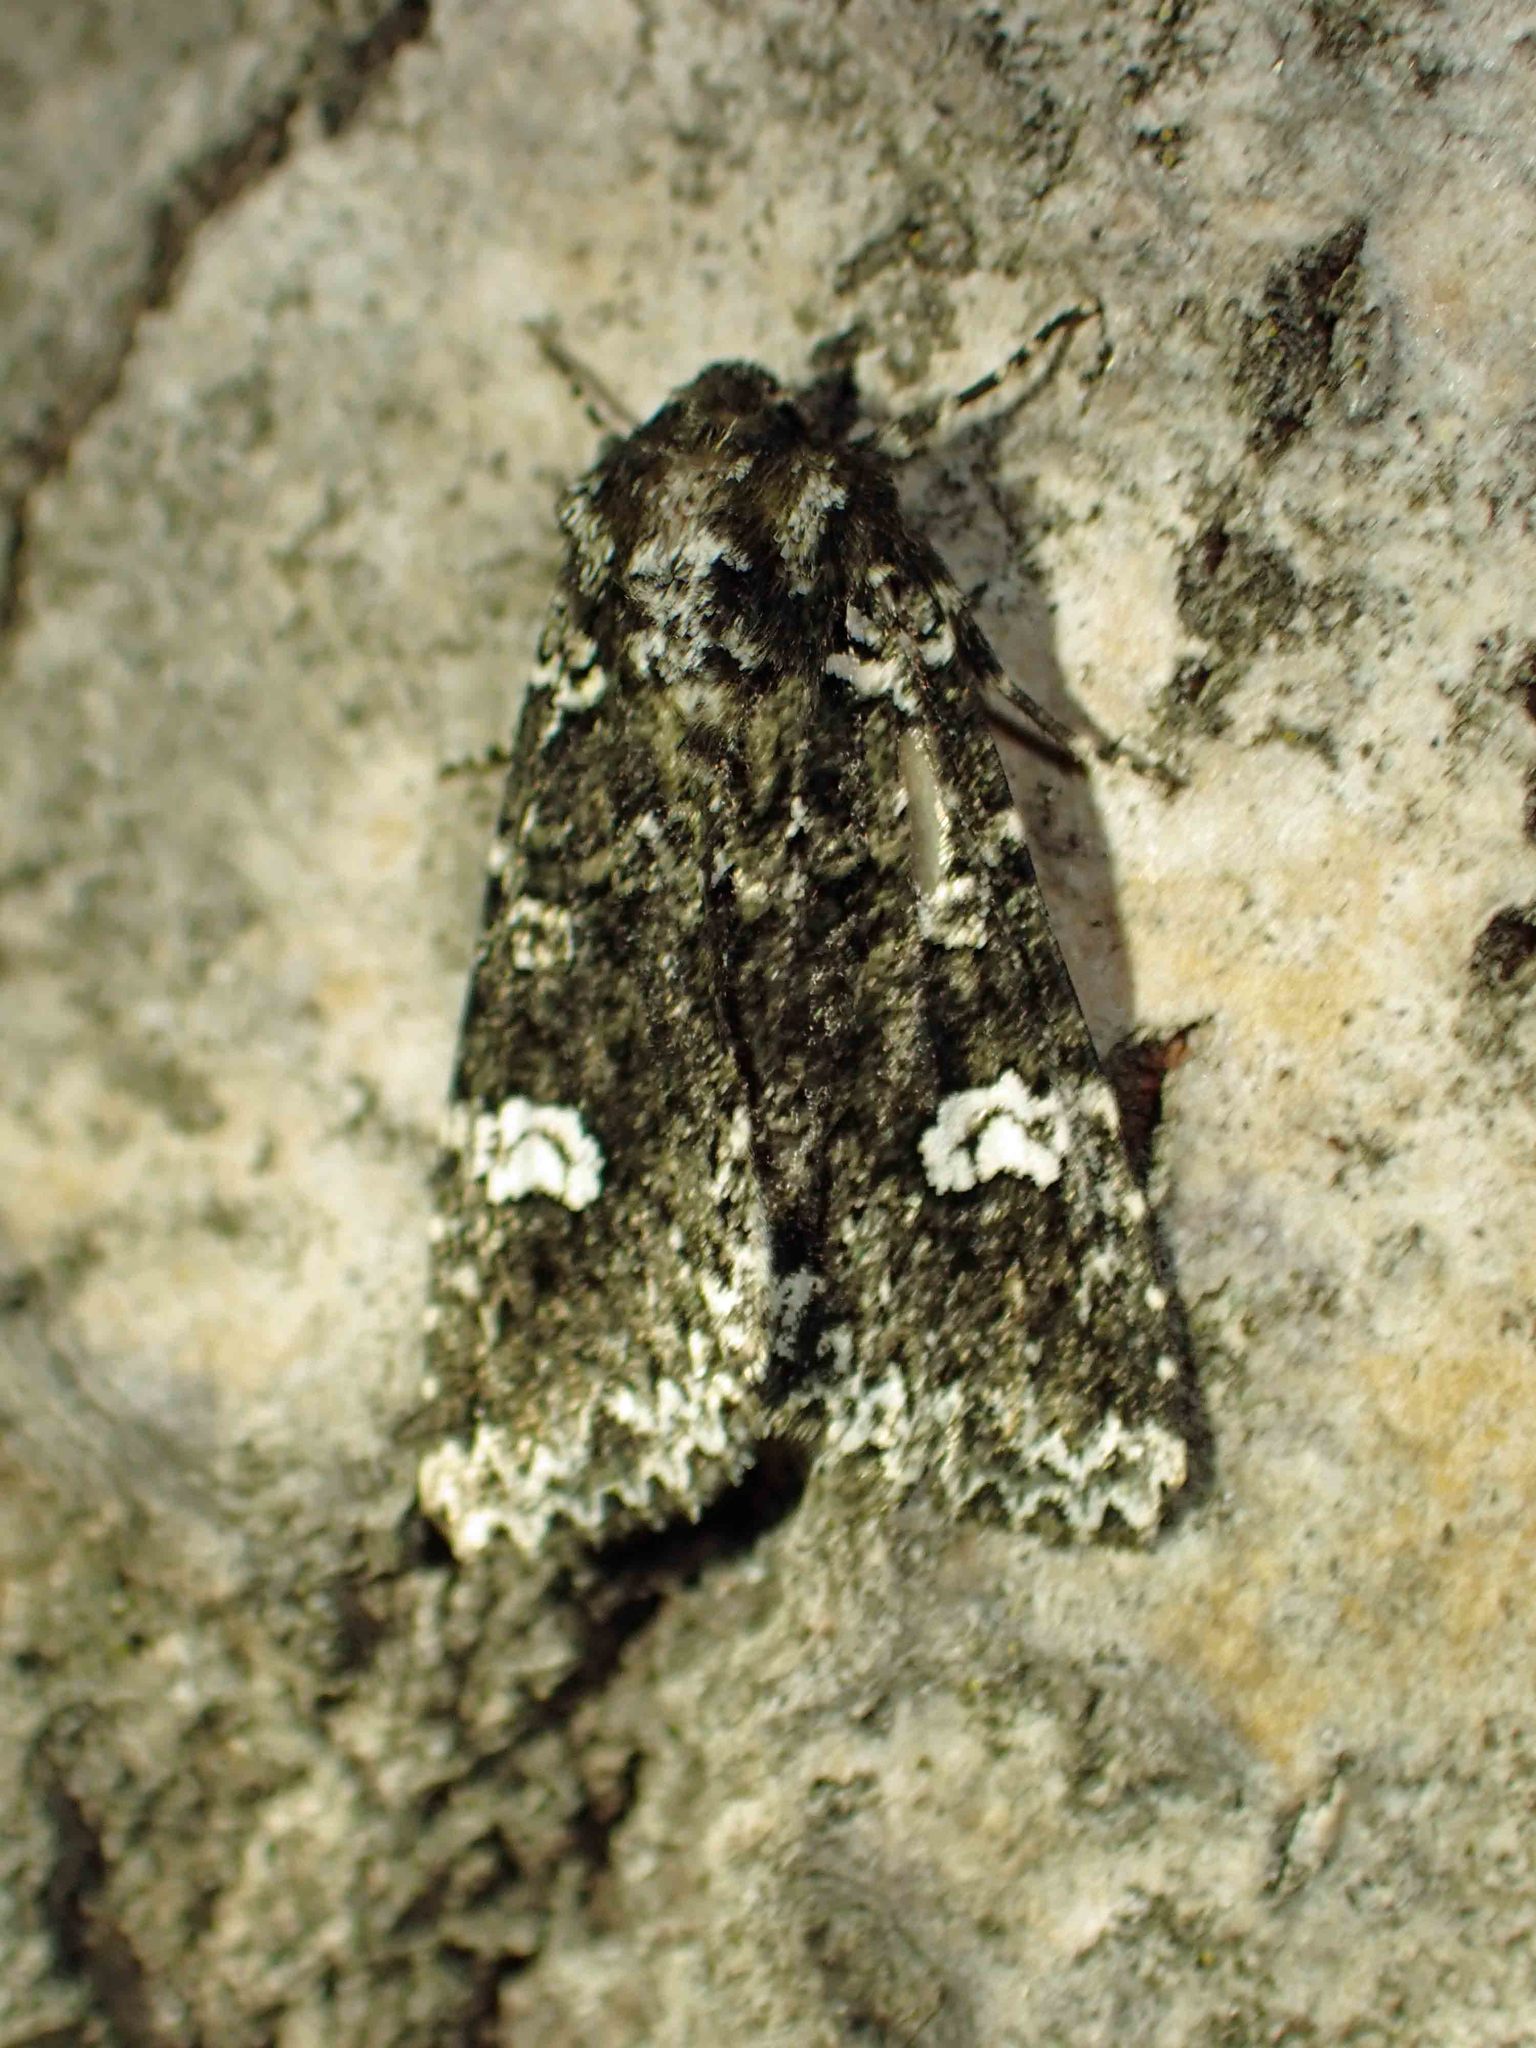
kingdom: Animalia
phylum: Arthropoda
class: Insecta
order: Lepidoptera
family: Noctuidae
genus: Melanchra
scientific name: Melanchra adjuncta
